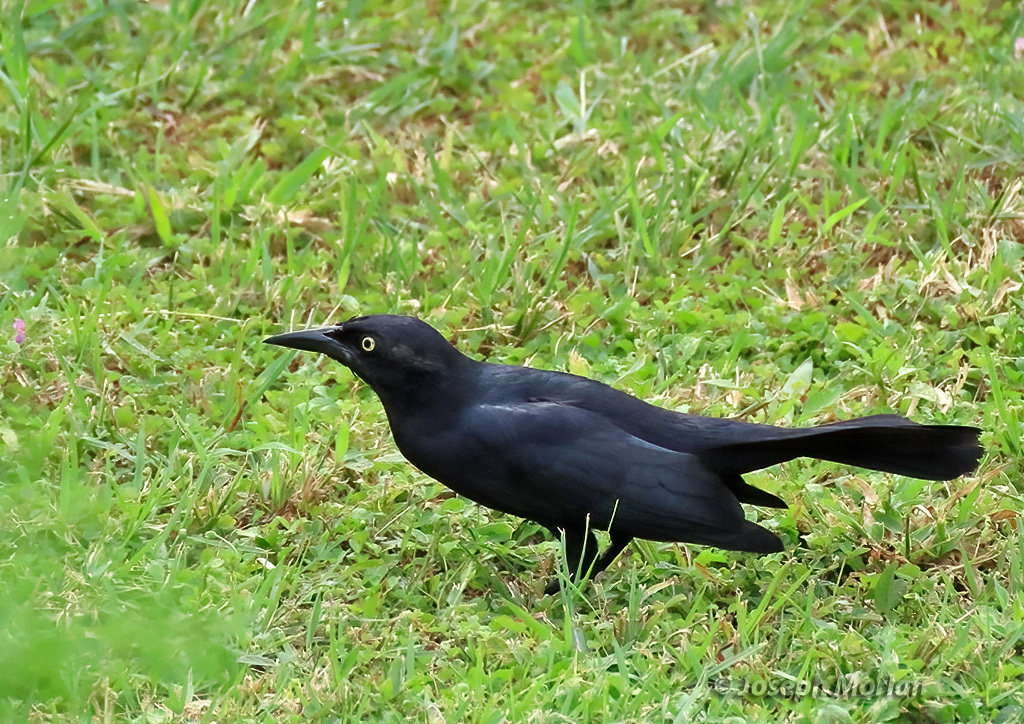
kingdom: Animalia
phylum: Chordata
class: Aves
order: Passeriformes
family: Icteridae
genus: Quiscalus
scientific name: Quiscalus niger
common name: Greater antillean grackle
